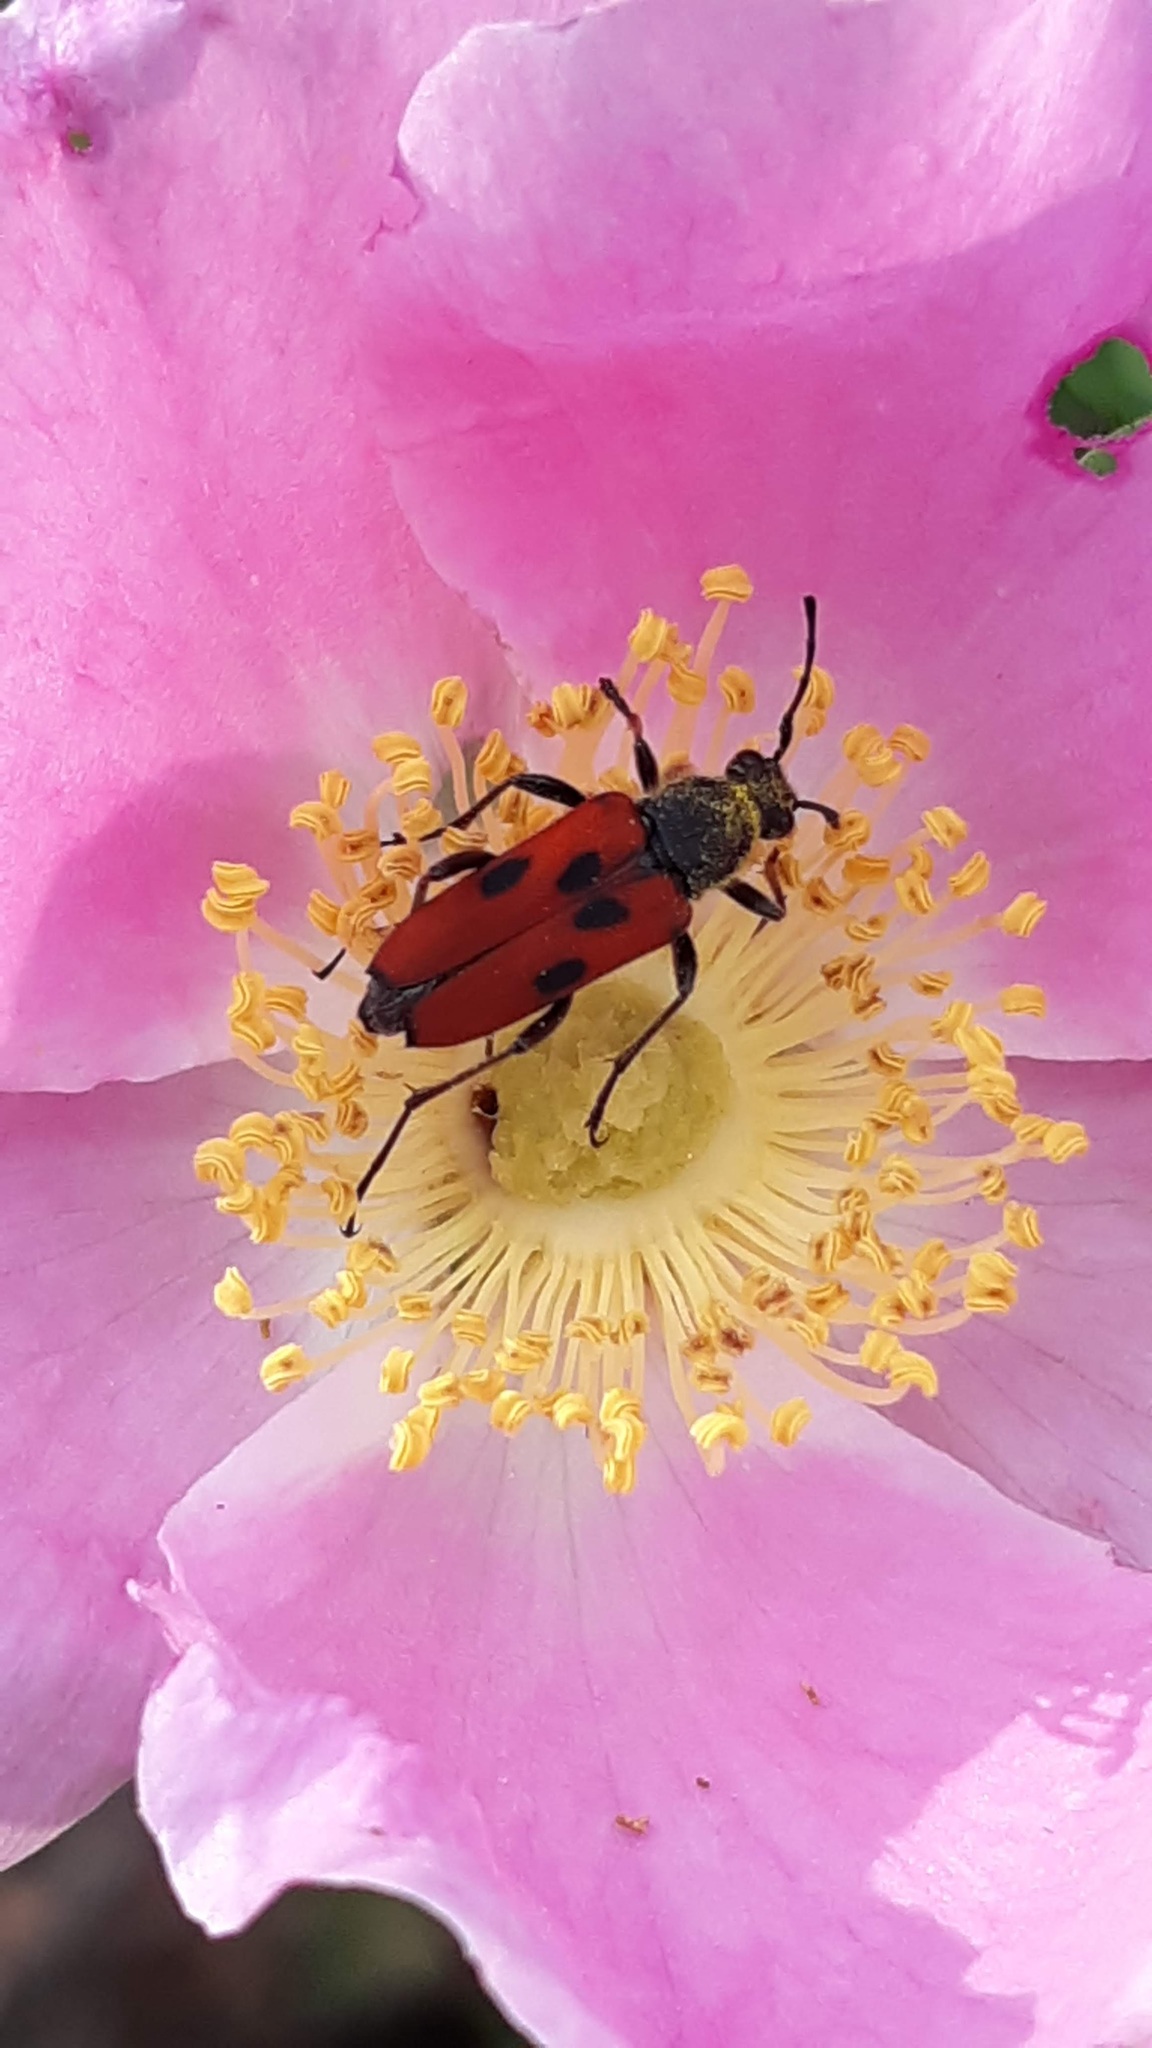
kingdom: Animalia
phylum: Arthropoda
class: Insecta
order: Coleoptera
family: Cerambycidae
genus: Anastrangalia
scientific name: Anastrangalia laetifica
